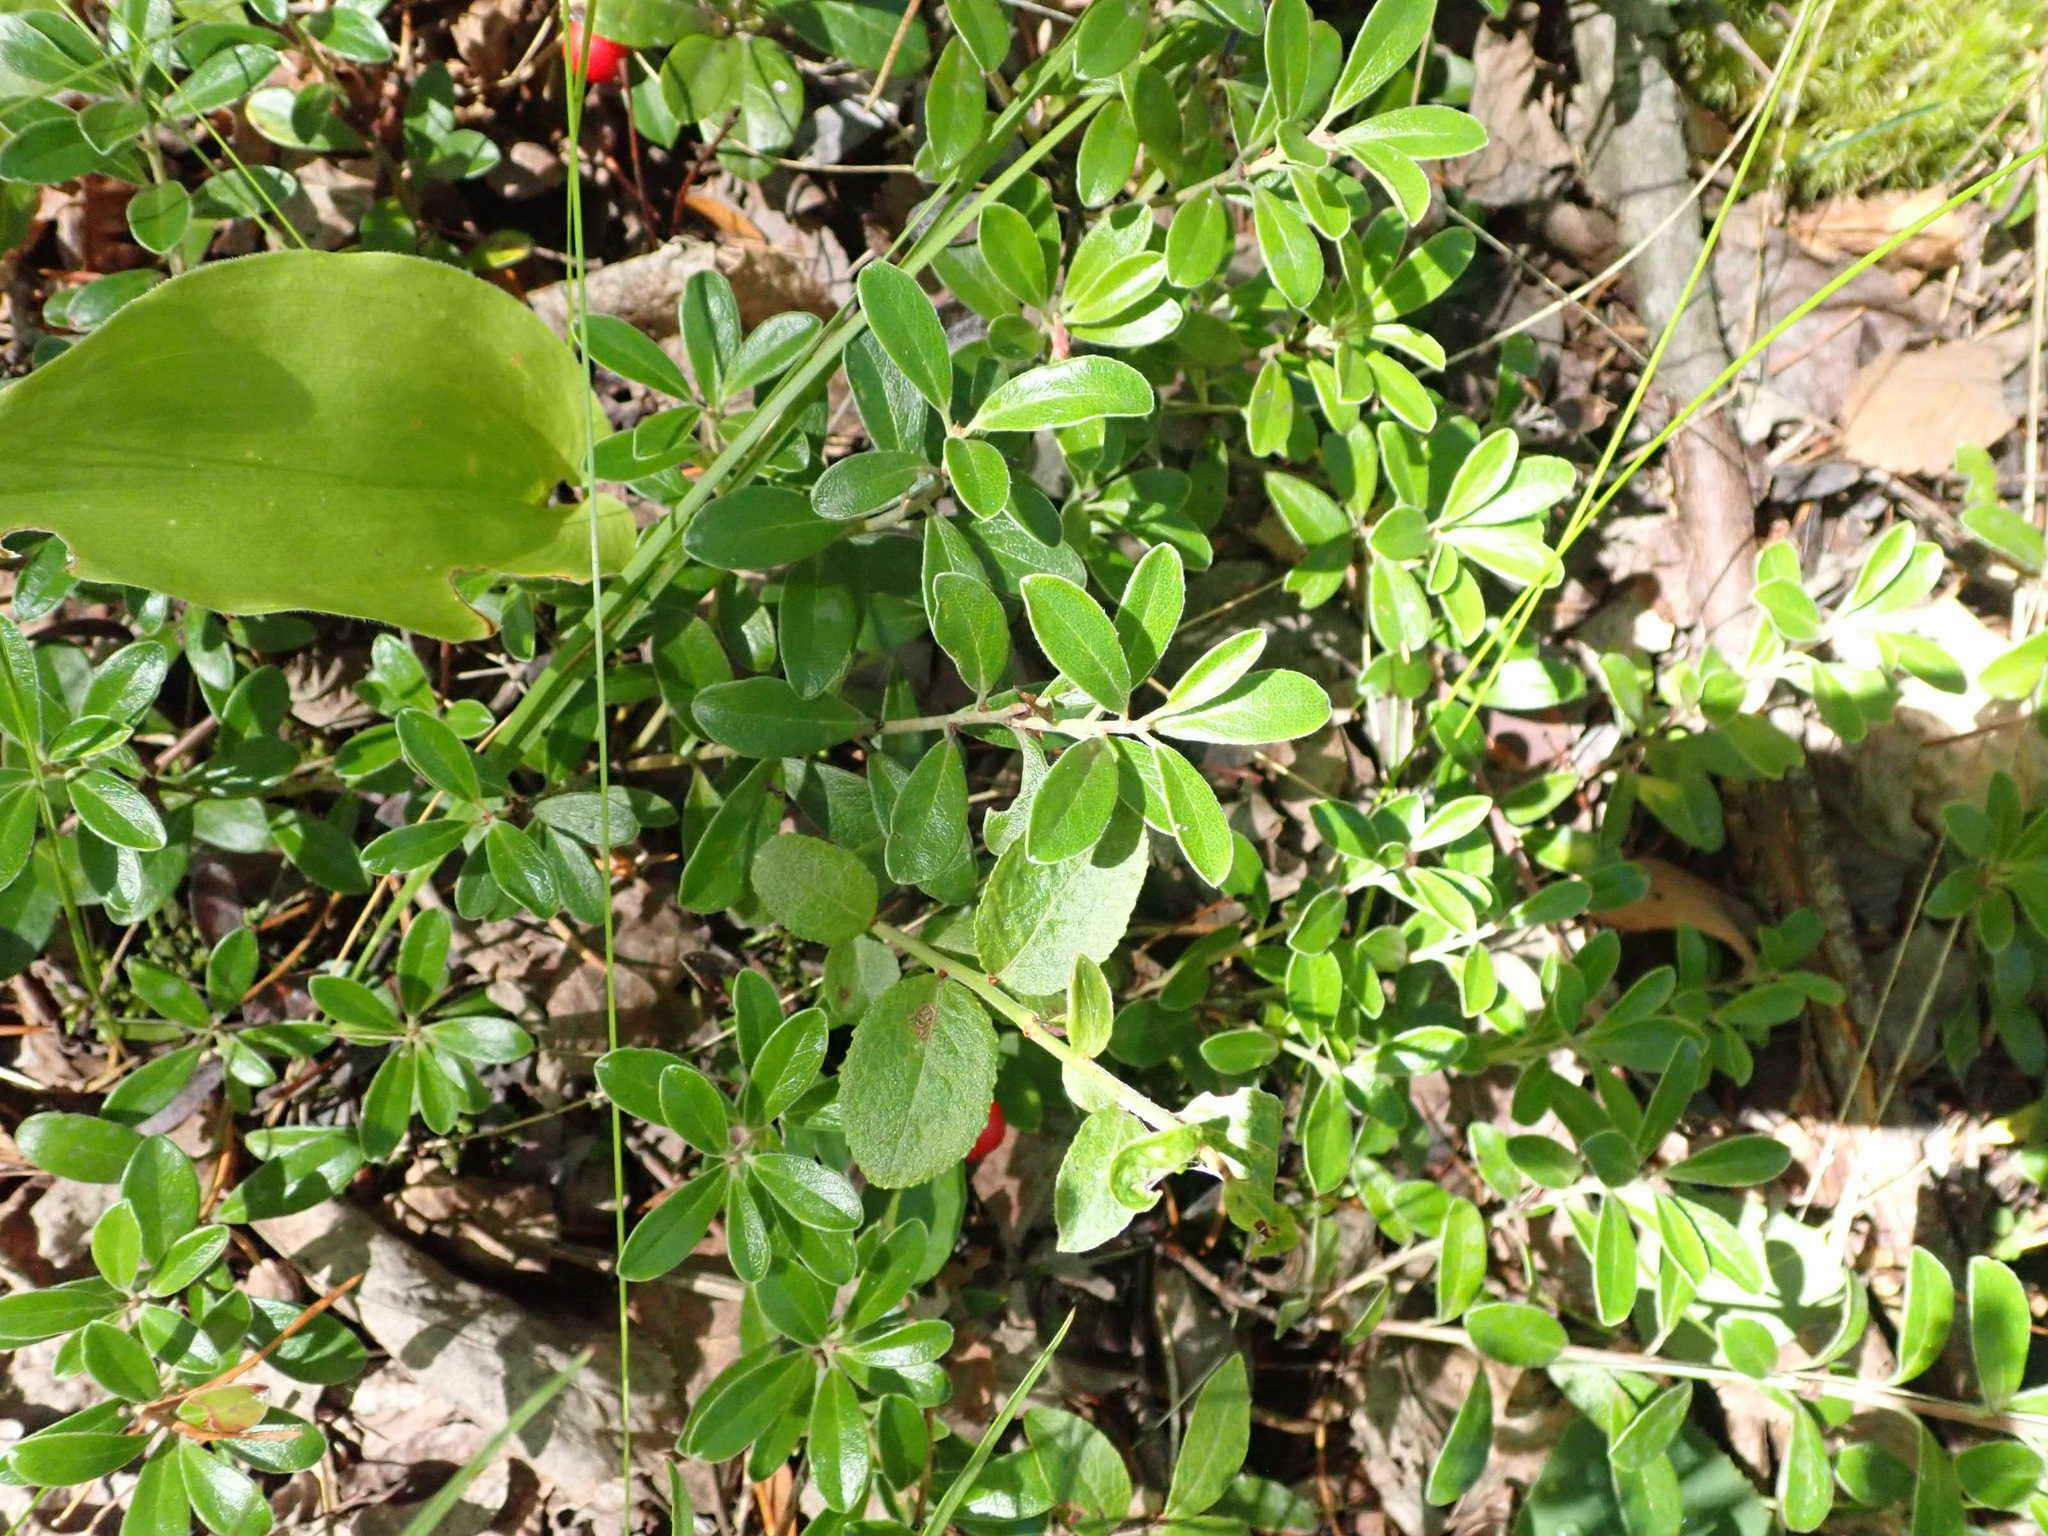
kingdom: Plantae
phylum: Tracheophyta
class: Magnoliopsida
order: Ericales
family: Ericaceae
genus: Arctostaphylos
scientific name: Arctostaphylos uva-ursi
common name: Bearberry
